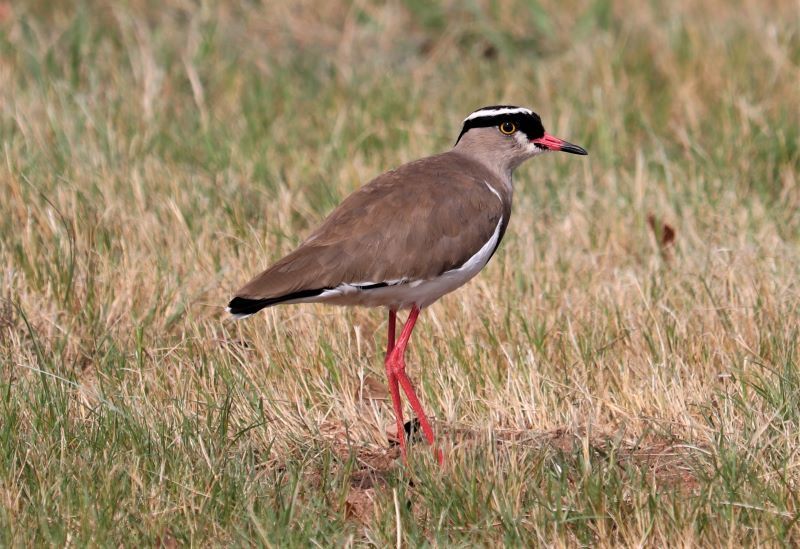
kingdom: Animalia
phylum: Chordata
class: Aves
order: Charadriiformes
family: Charadriidae
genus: Vanellus
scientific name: Vanellus coronatus
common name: Crowned lapwing
